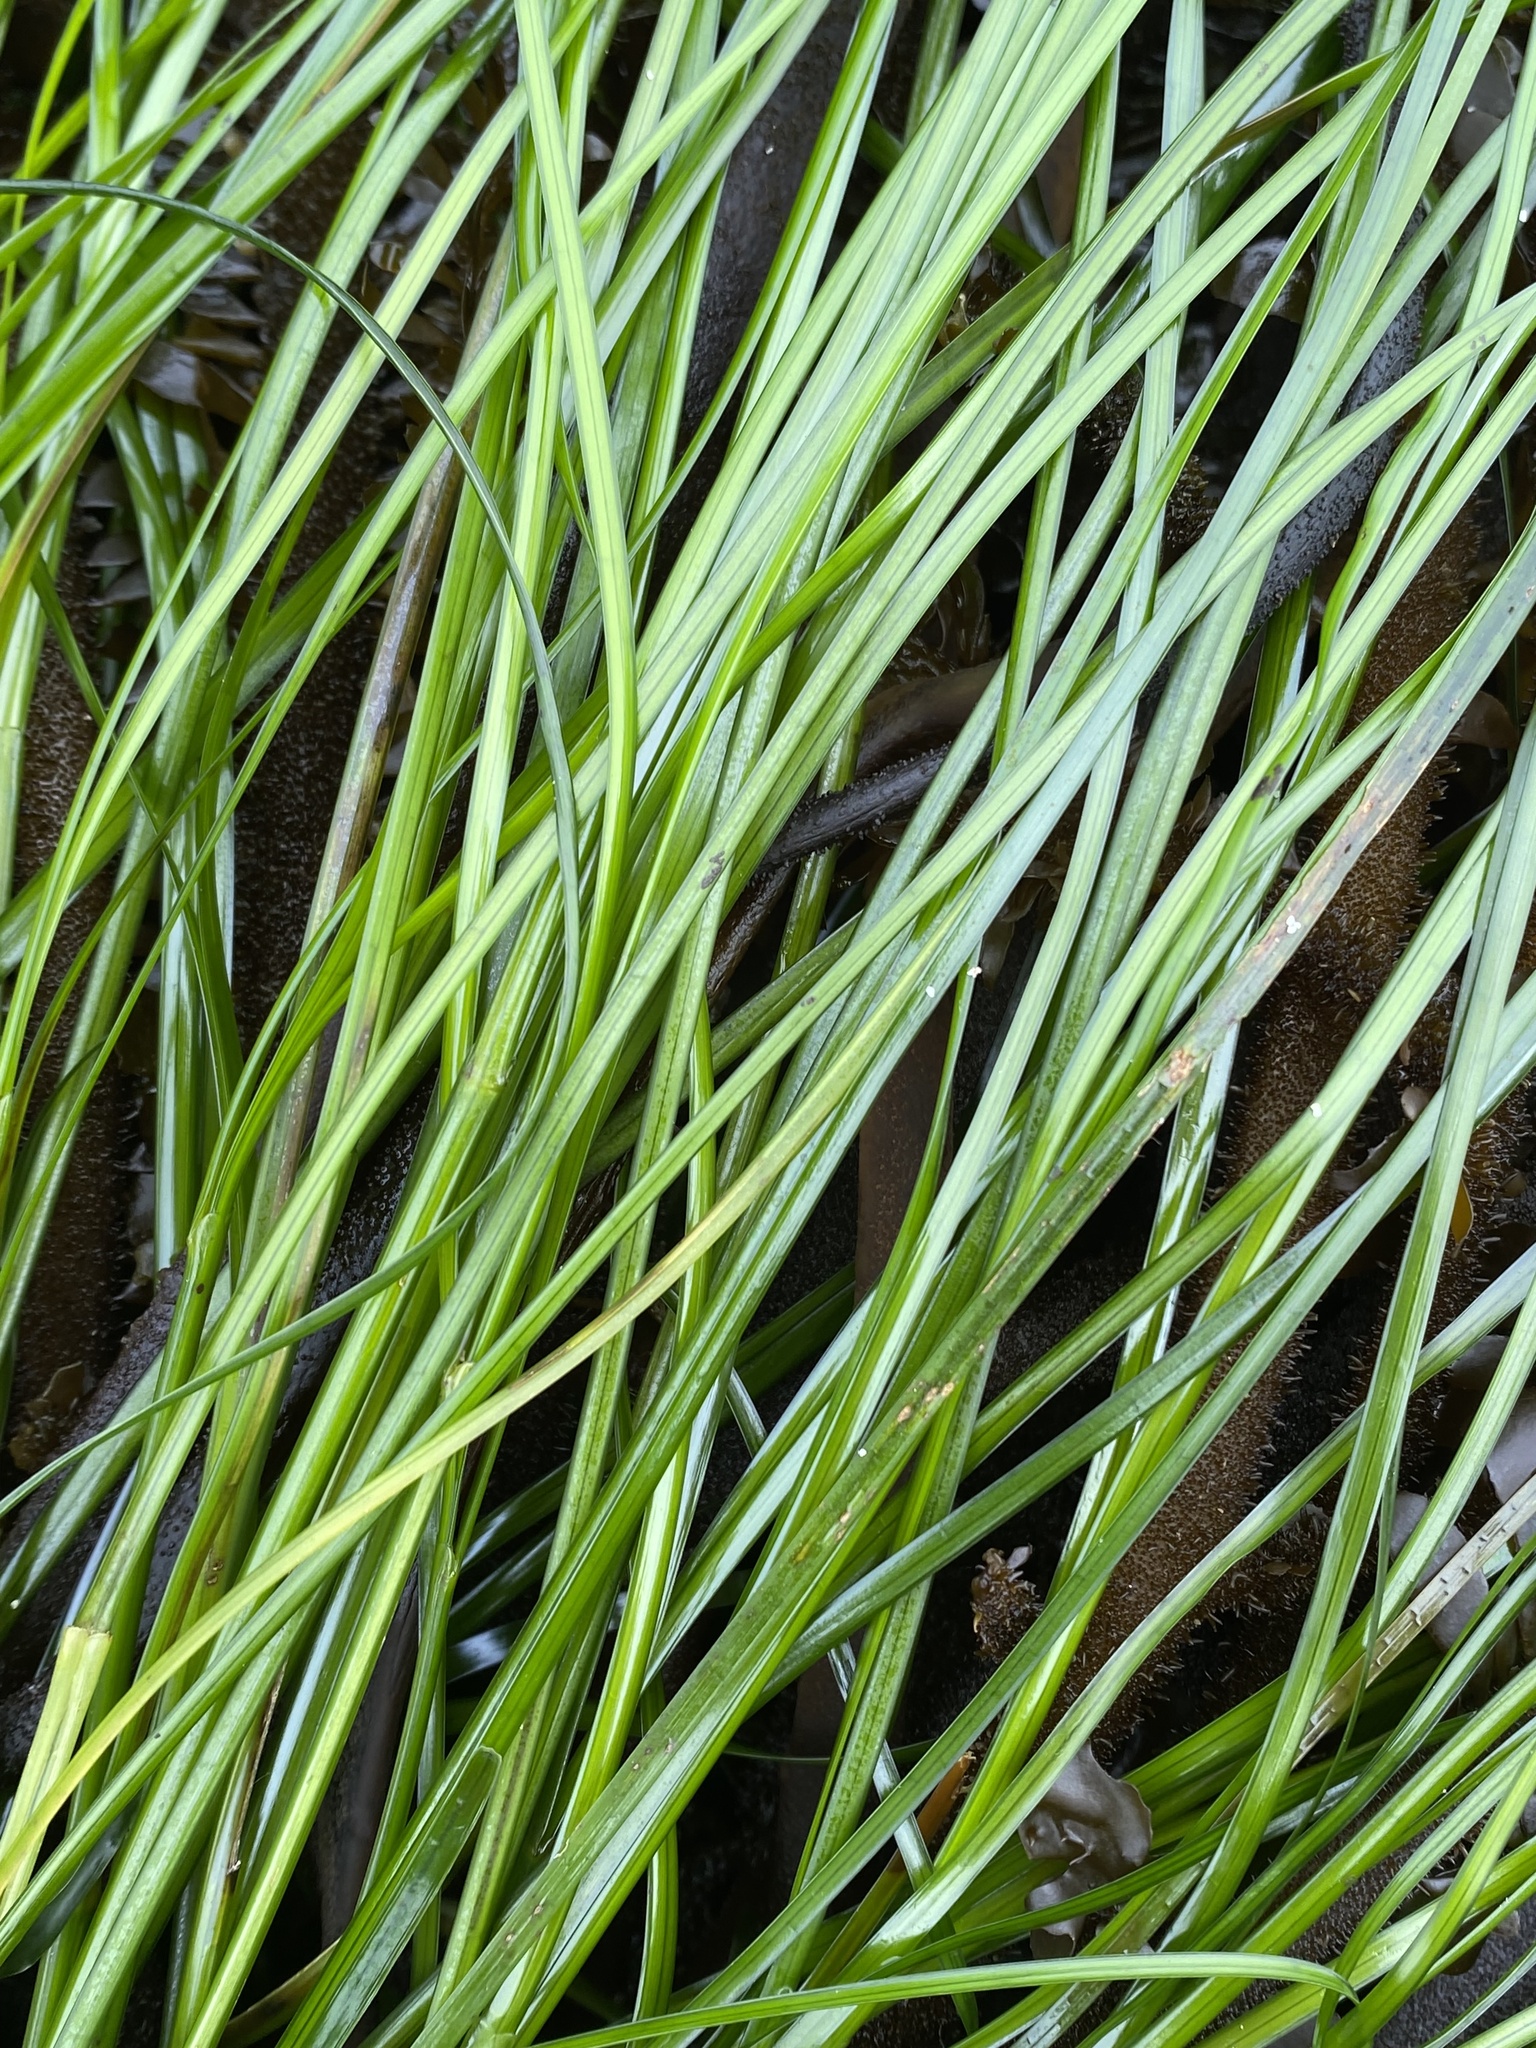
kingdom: Plantae
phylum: Tracheophyta
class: Liliopsida
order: Alismatales
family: Zosteraceae
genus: Phyllospadix
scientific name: Phyllospadix torreyi
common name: Surfgrass
